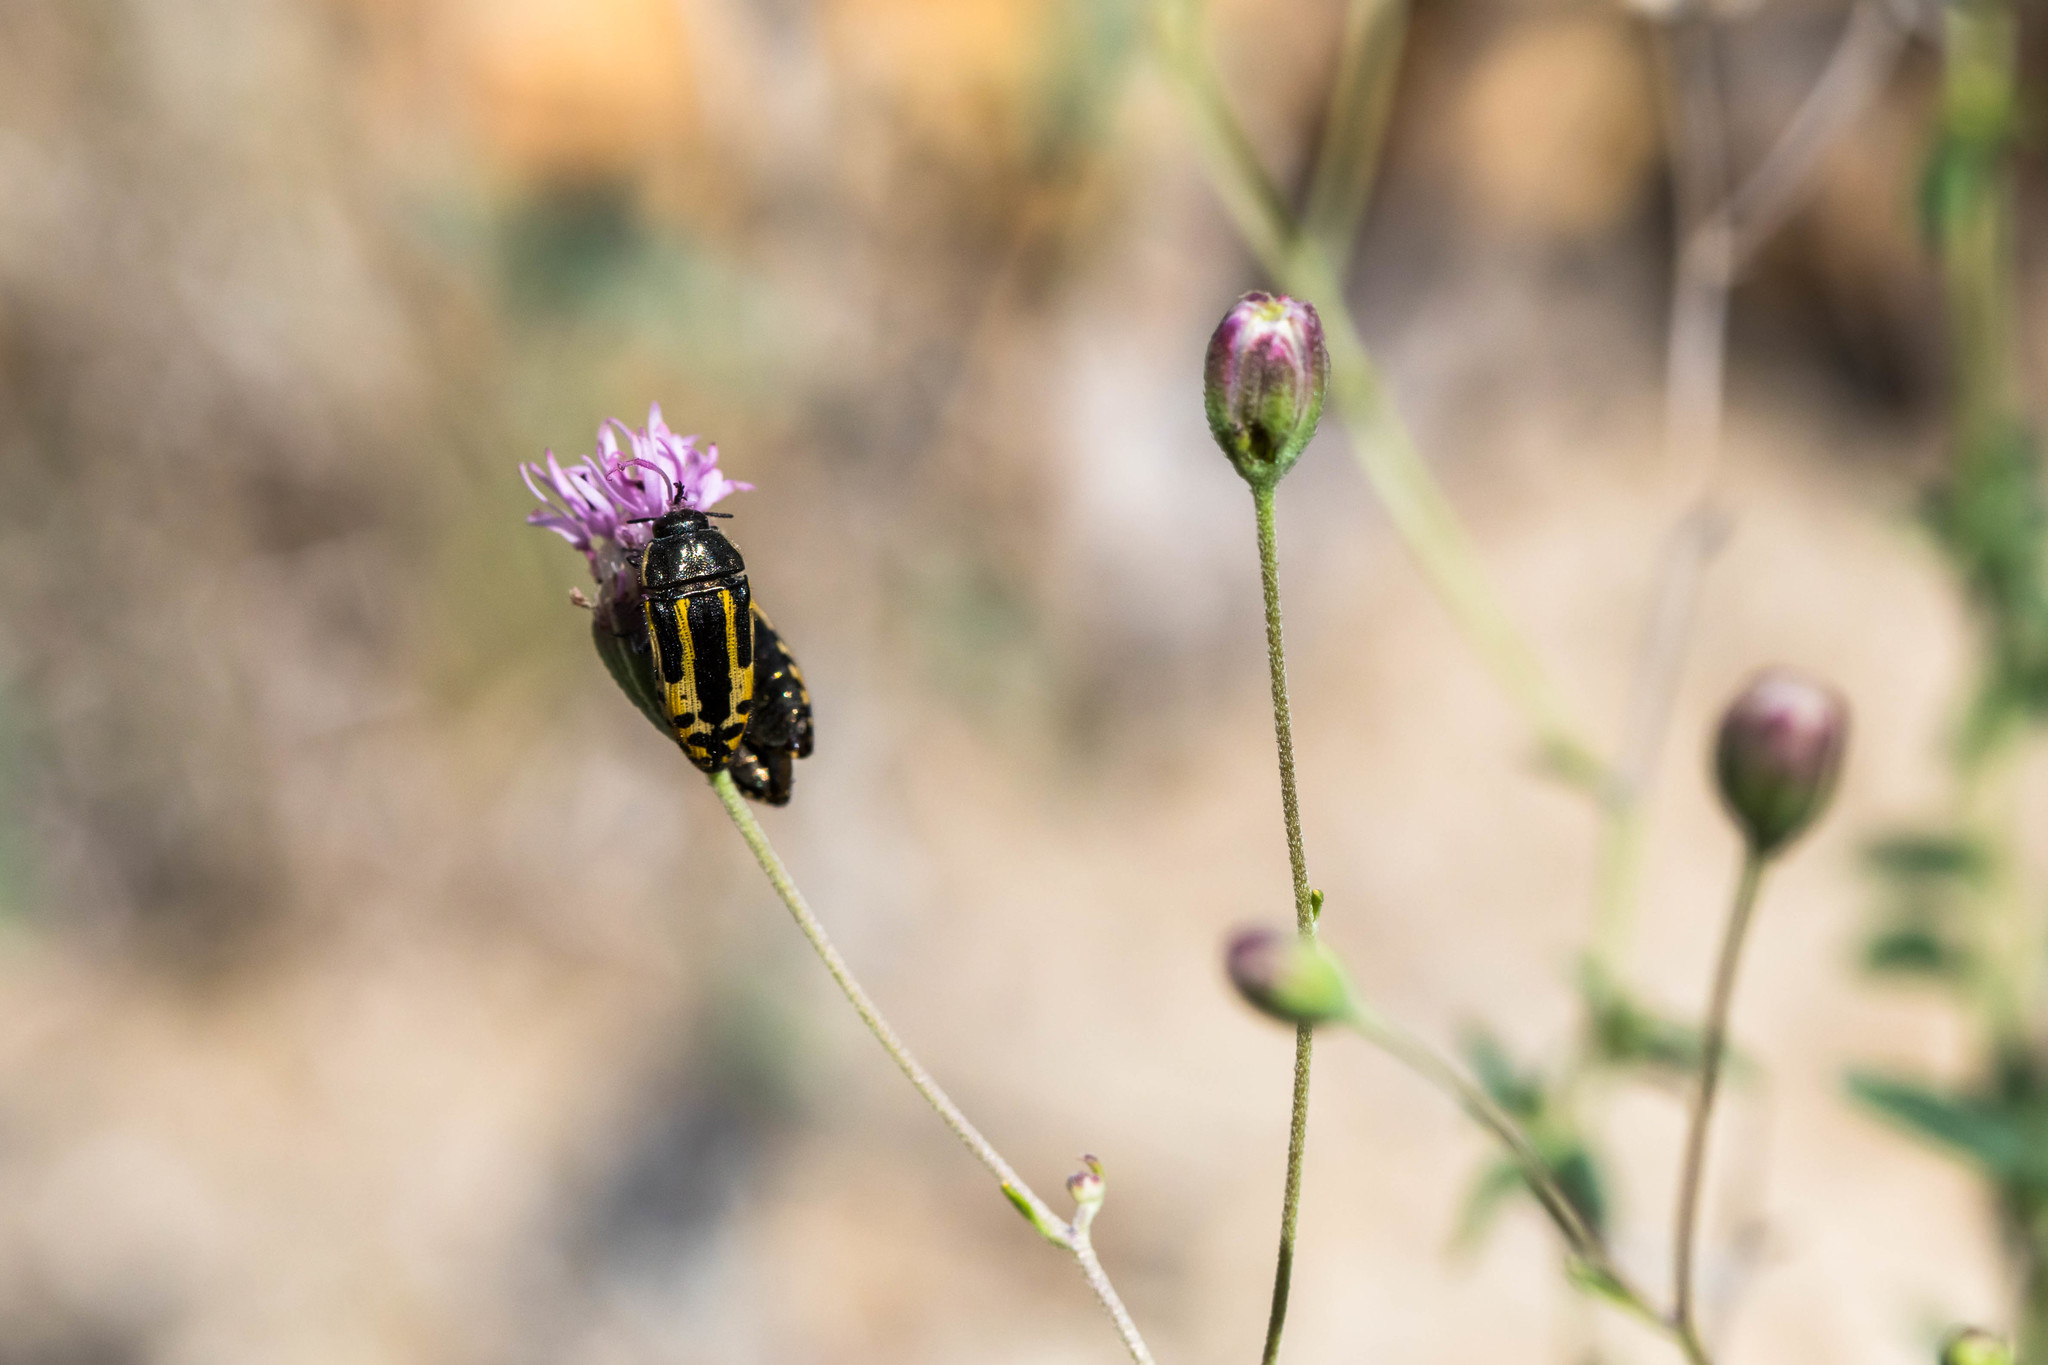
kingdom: Animalia
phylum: Arthropoda
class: Insecta
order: Coleoptera
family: Buprestidae
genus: Acmaeodera
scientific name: Acmaeodera scalaris
